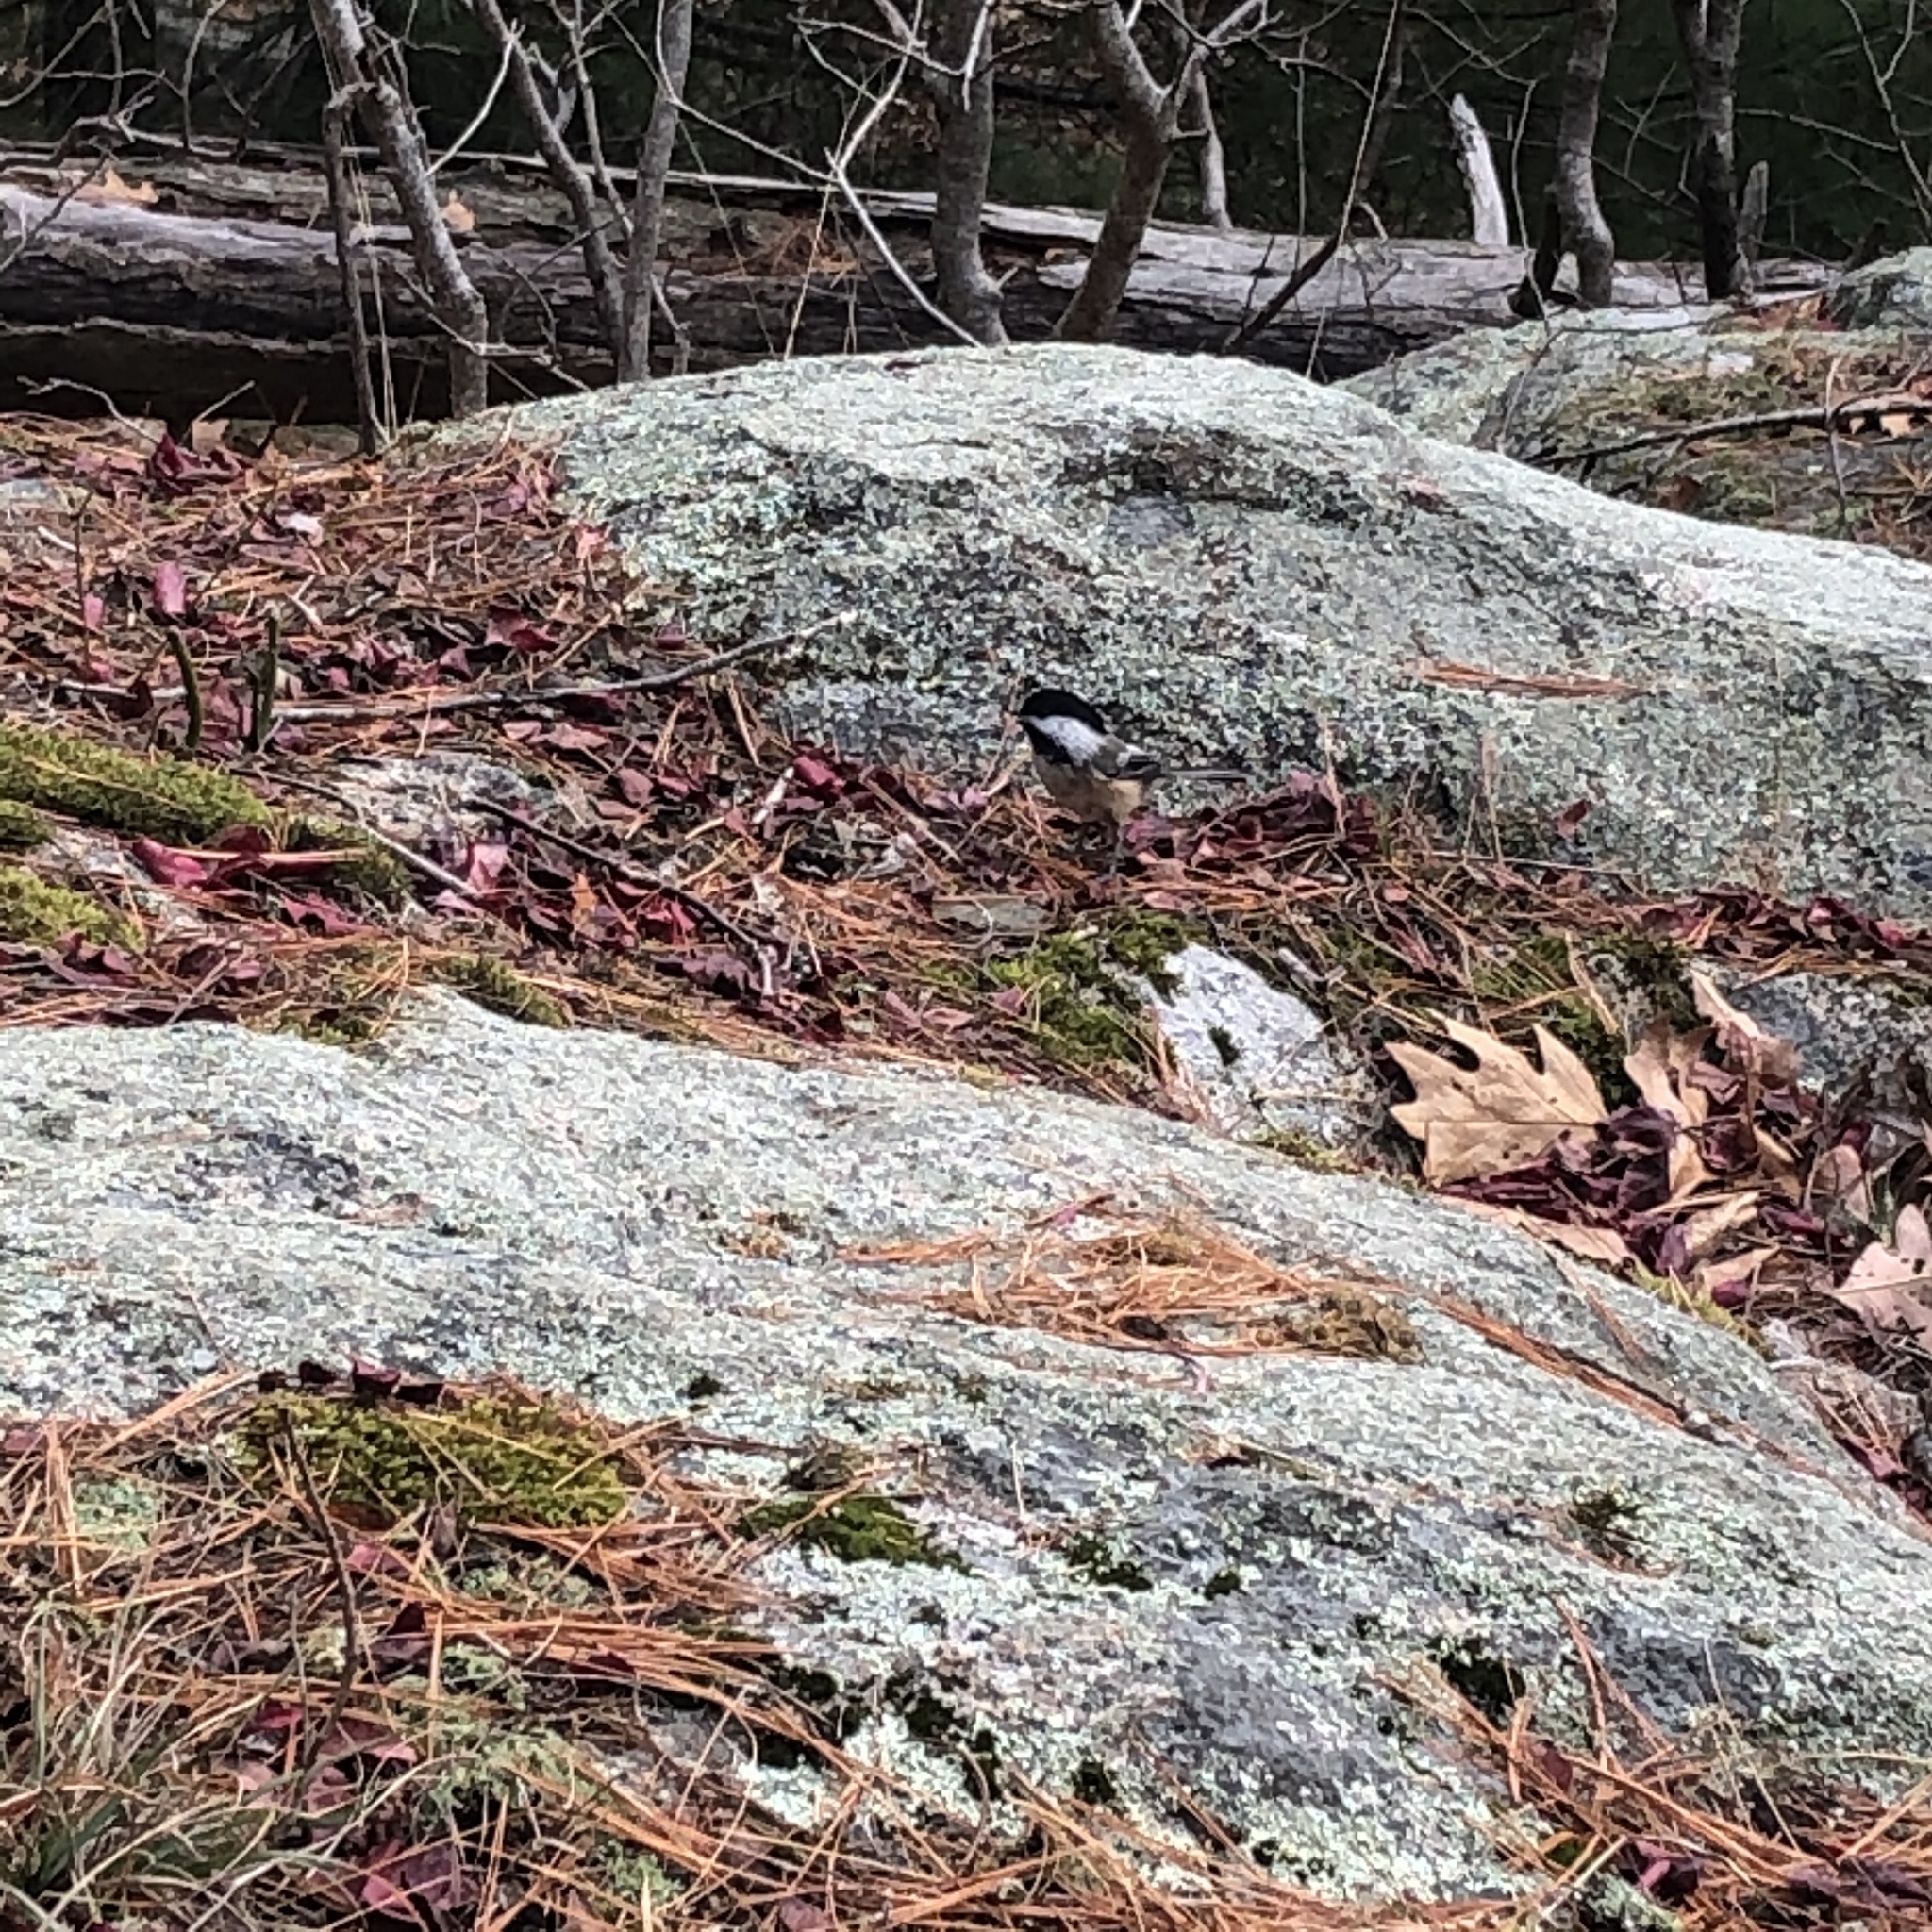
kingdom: Animalia
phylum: Chordata
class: Aves
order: Passeriformes
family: Paridae
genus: Poecile
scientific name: Poecile atricapillus
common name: Black-capped chickadee
